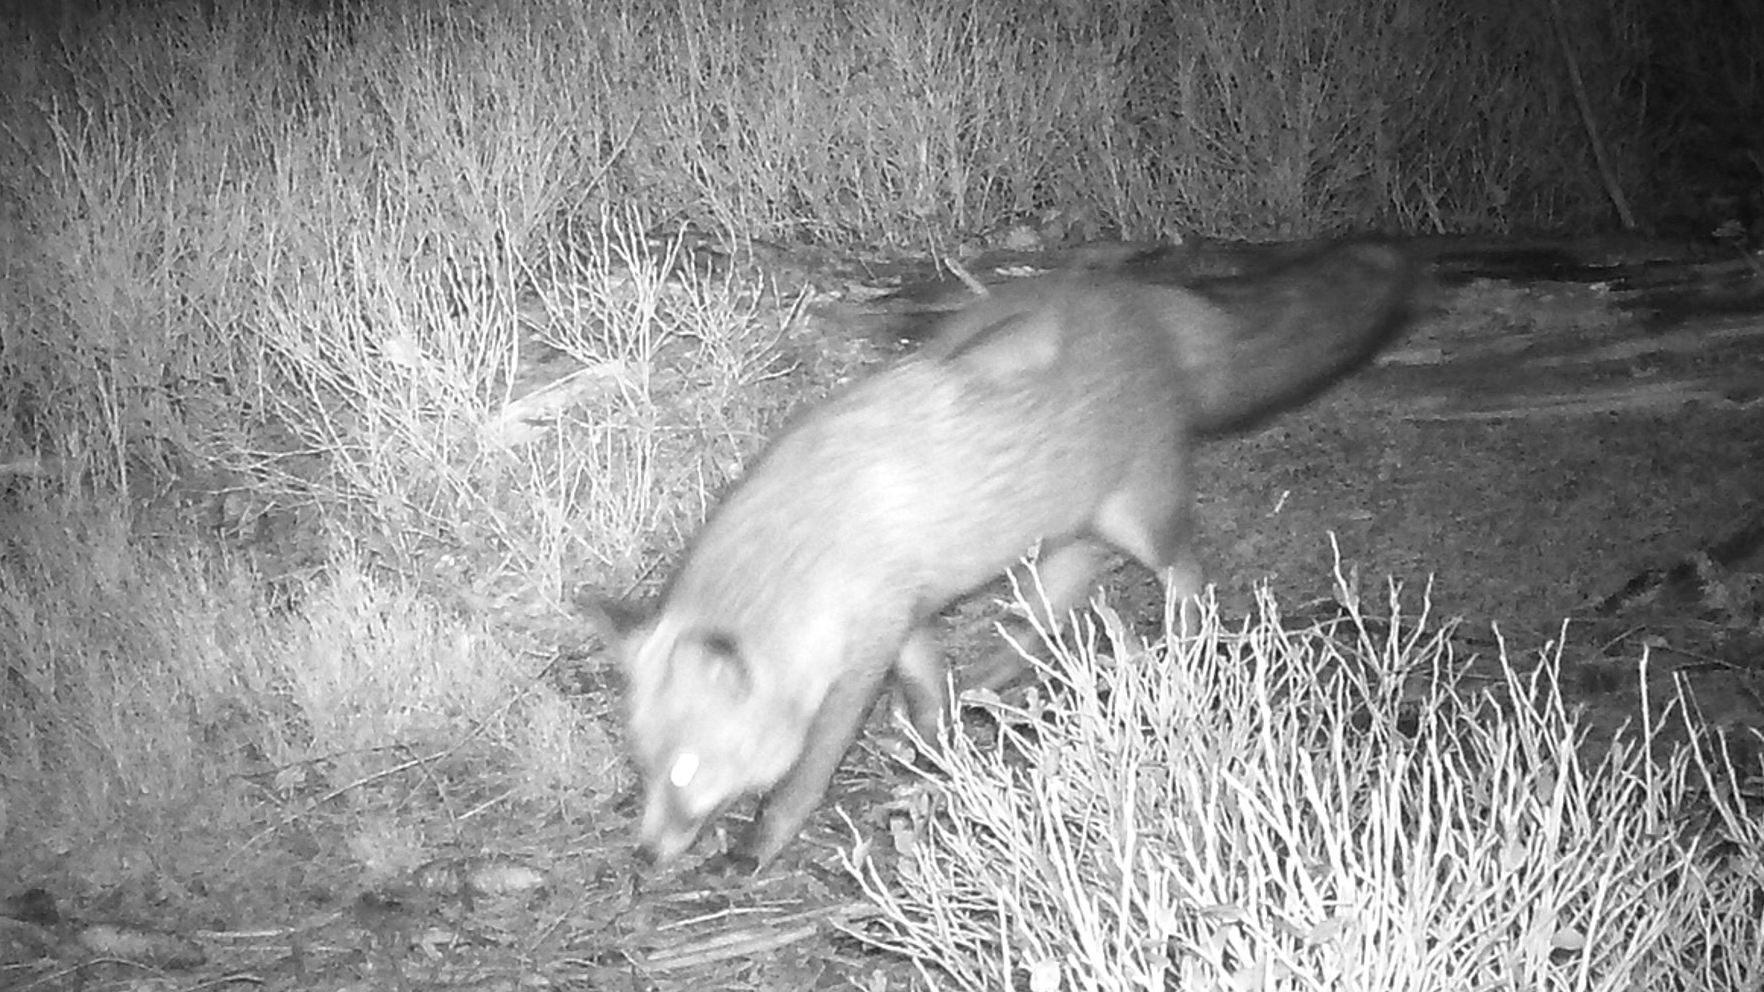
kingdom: Animalia
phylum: Chordata
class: Mammalia
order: Carnivora
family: Canidae
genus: Vulpes
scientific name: Vulpes vulpes
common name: Red fox
